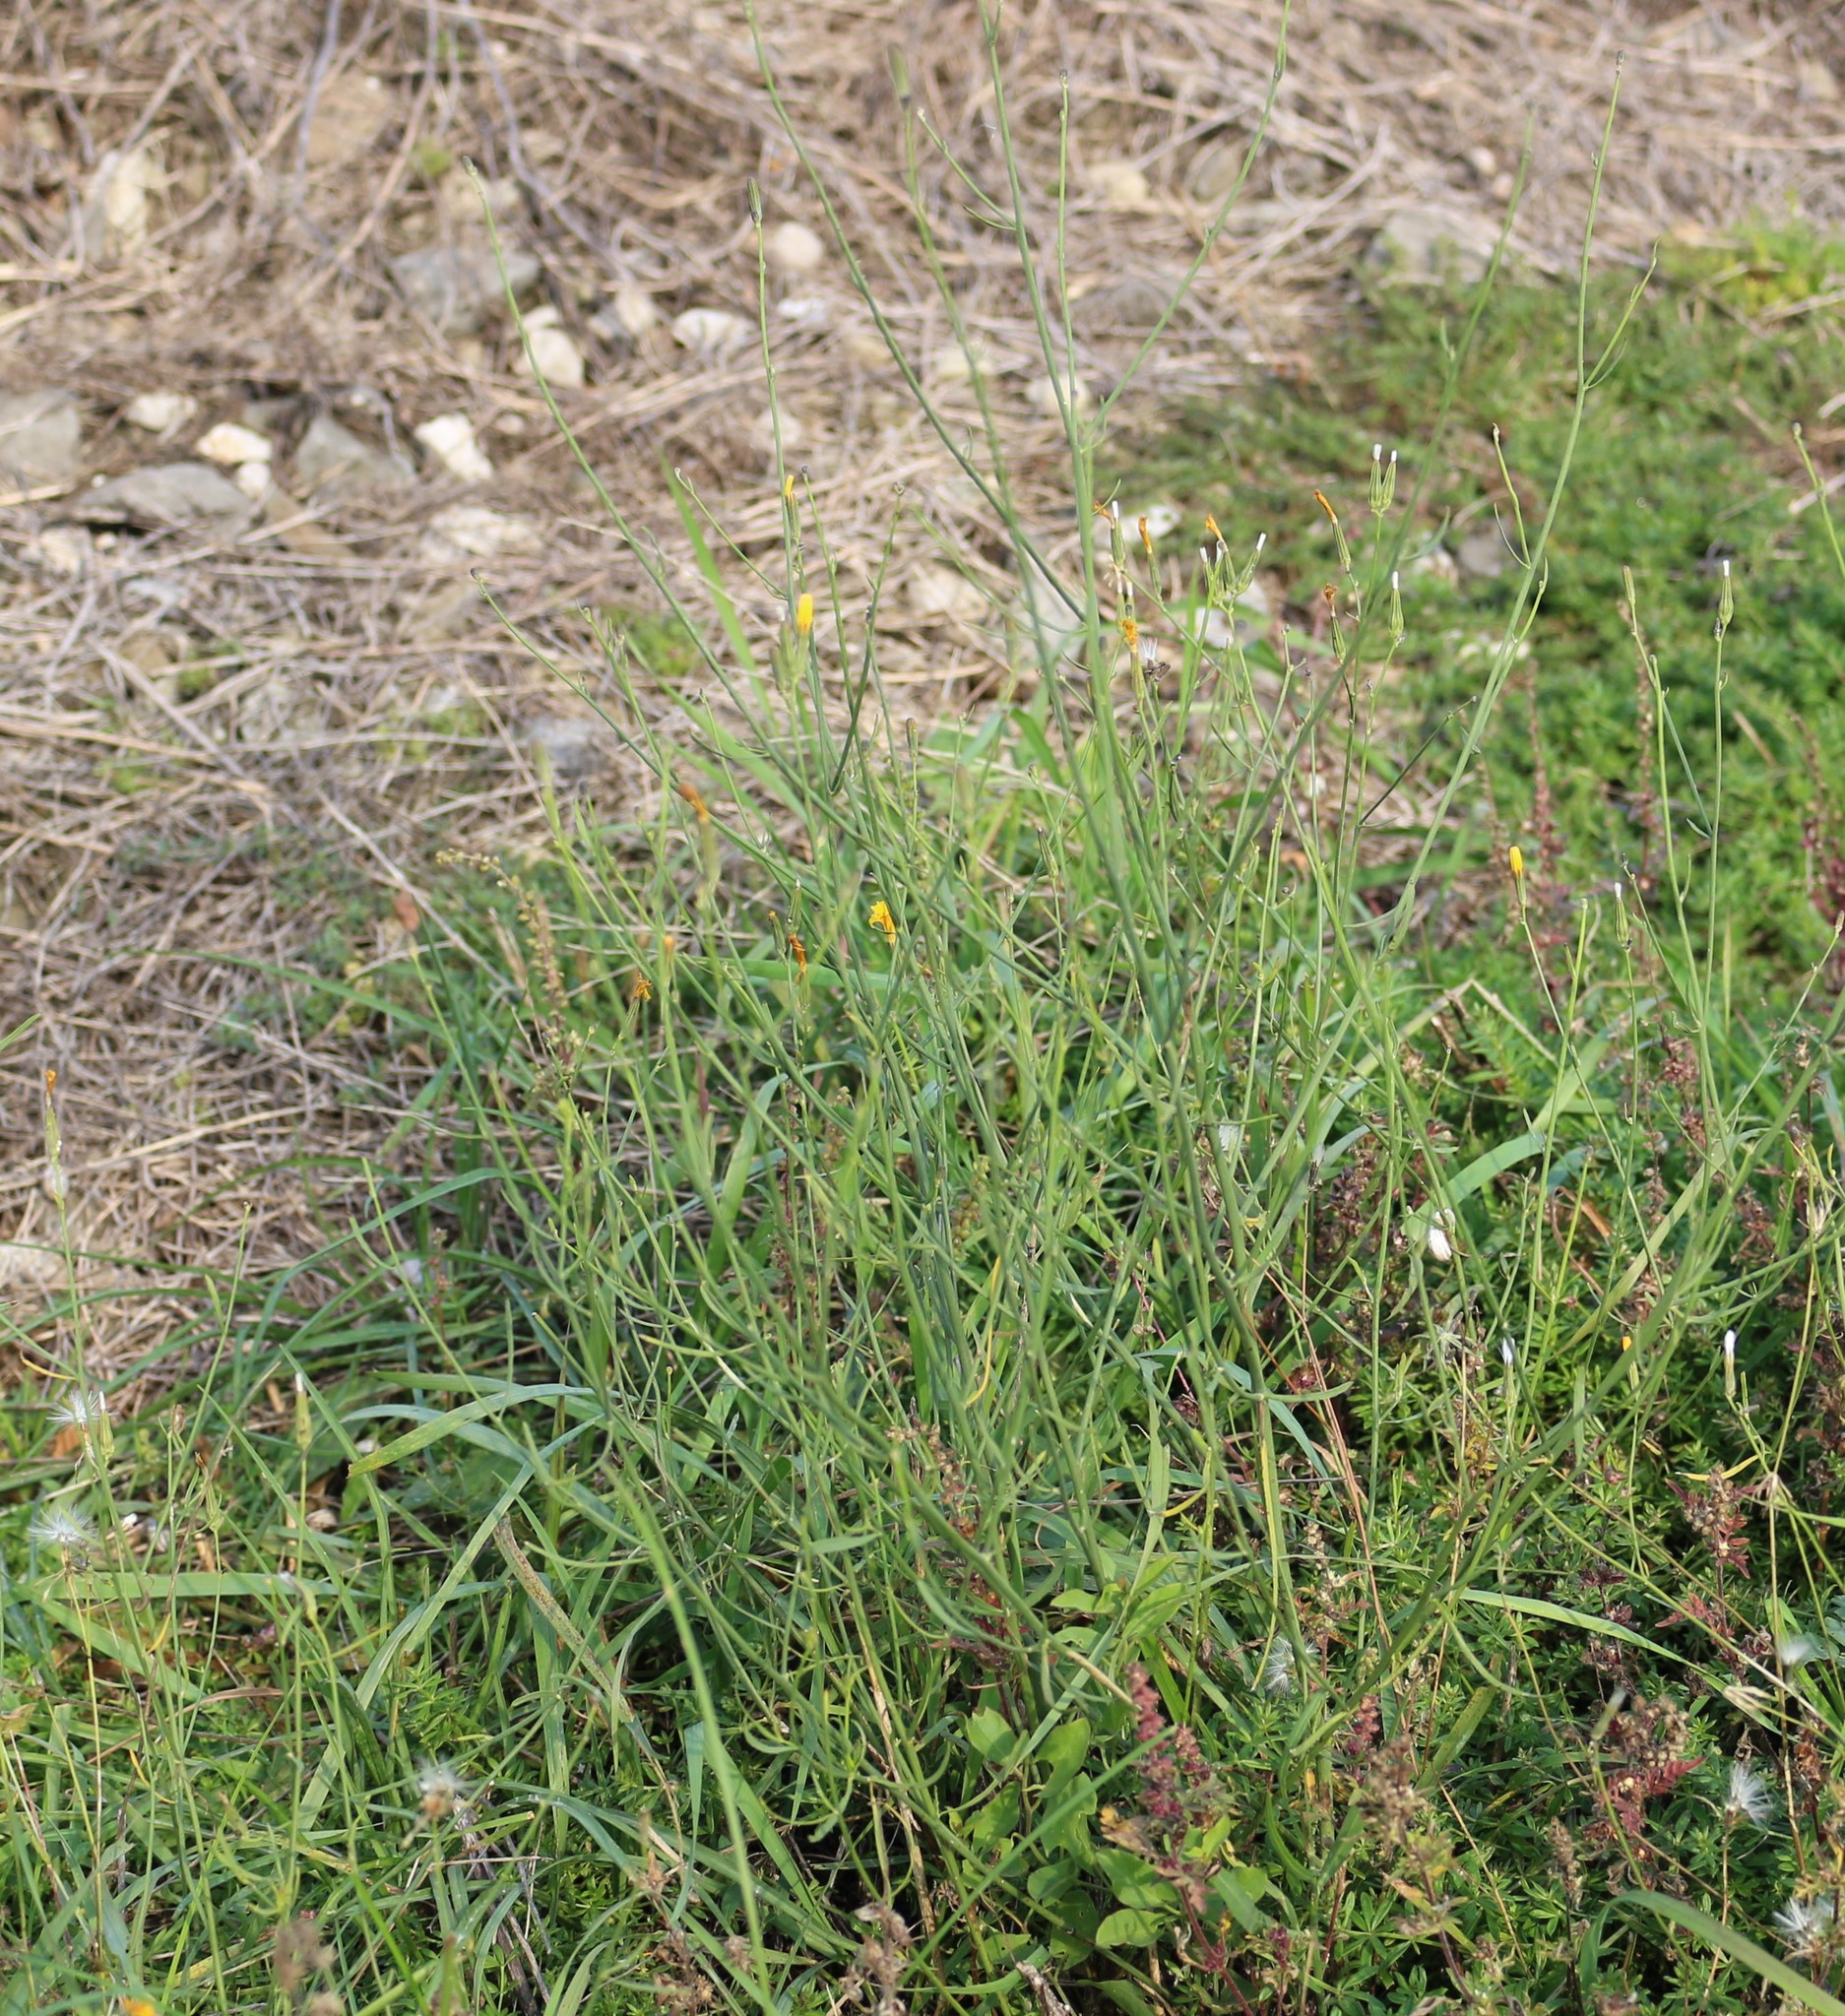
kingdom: Plantae
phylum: Tracheophyta
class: Magnoliopsida
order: Asterales
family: Asteraceae
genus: Chondrilla
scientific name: Chondrilla juncea
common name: Skeleton weed
